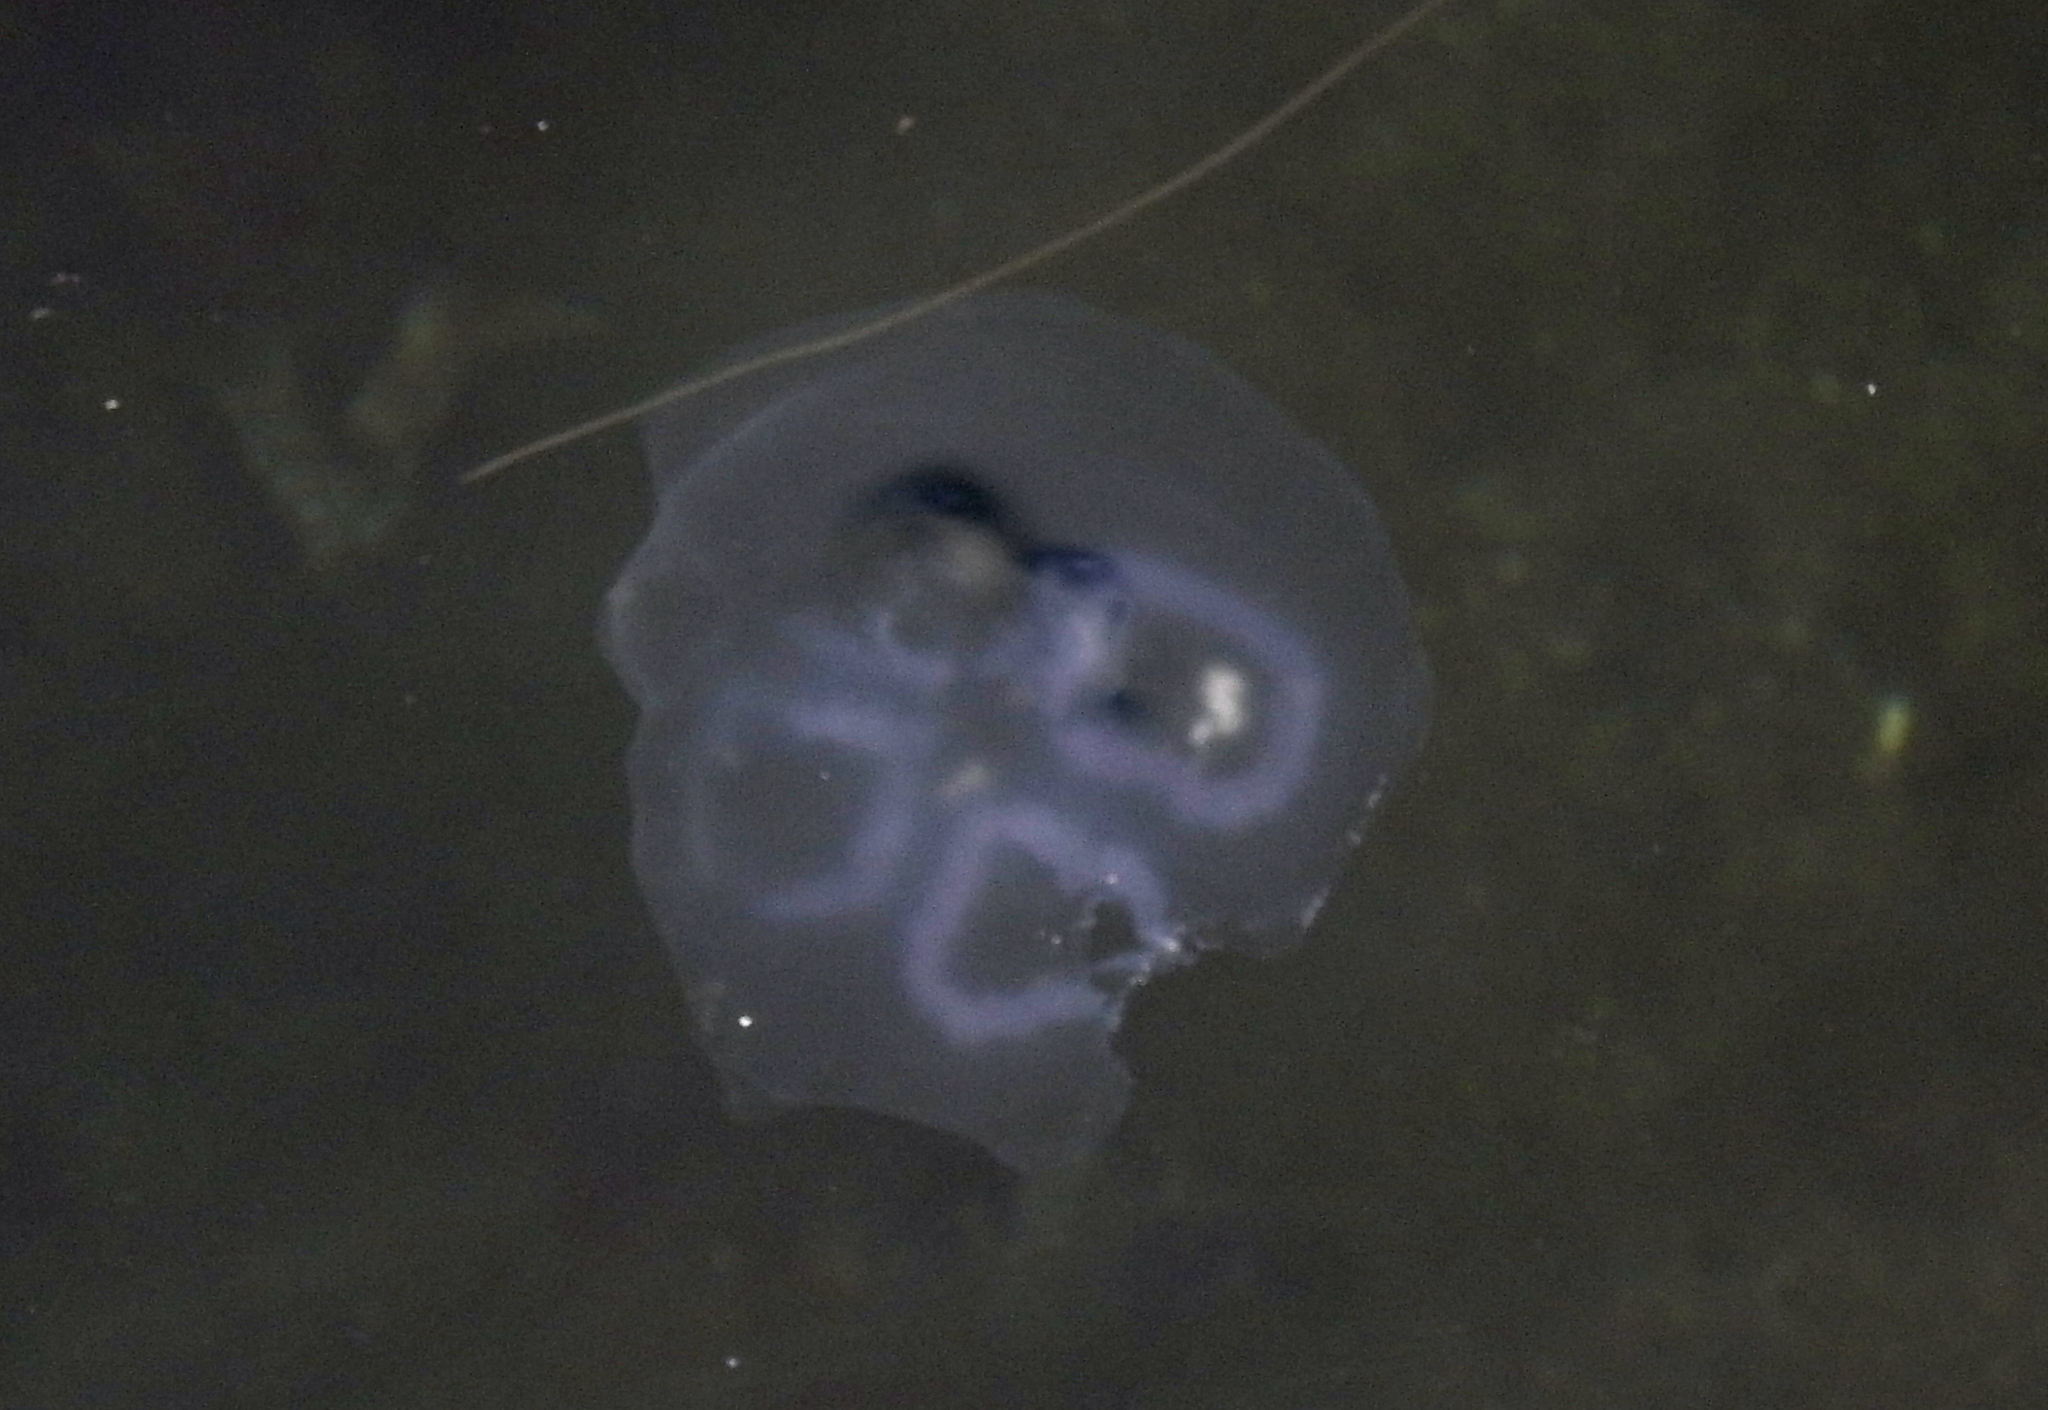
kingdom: Animalia
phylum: Cnidaria
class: Scyphozoa
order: Semaeostomeae
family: Ulmaridae
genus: Aurelia
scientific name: Aurelia aurita
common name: Moon jellyfish
